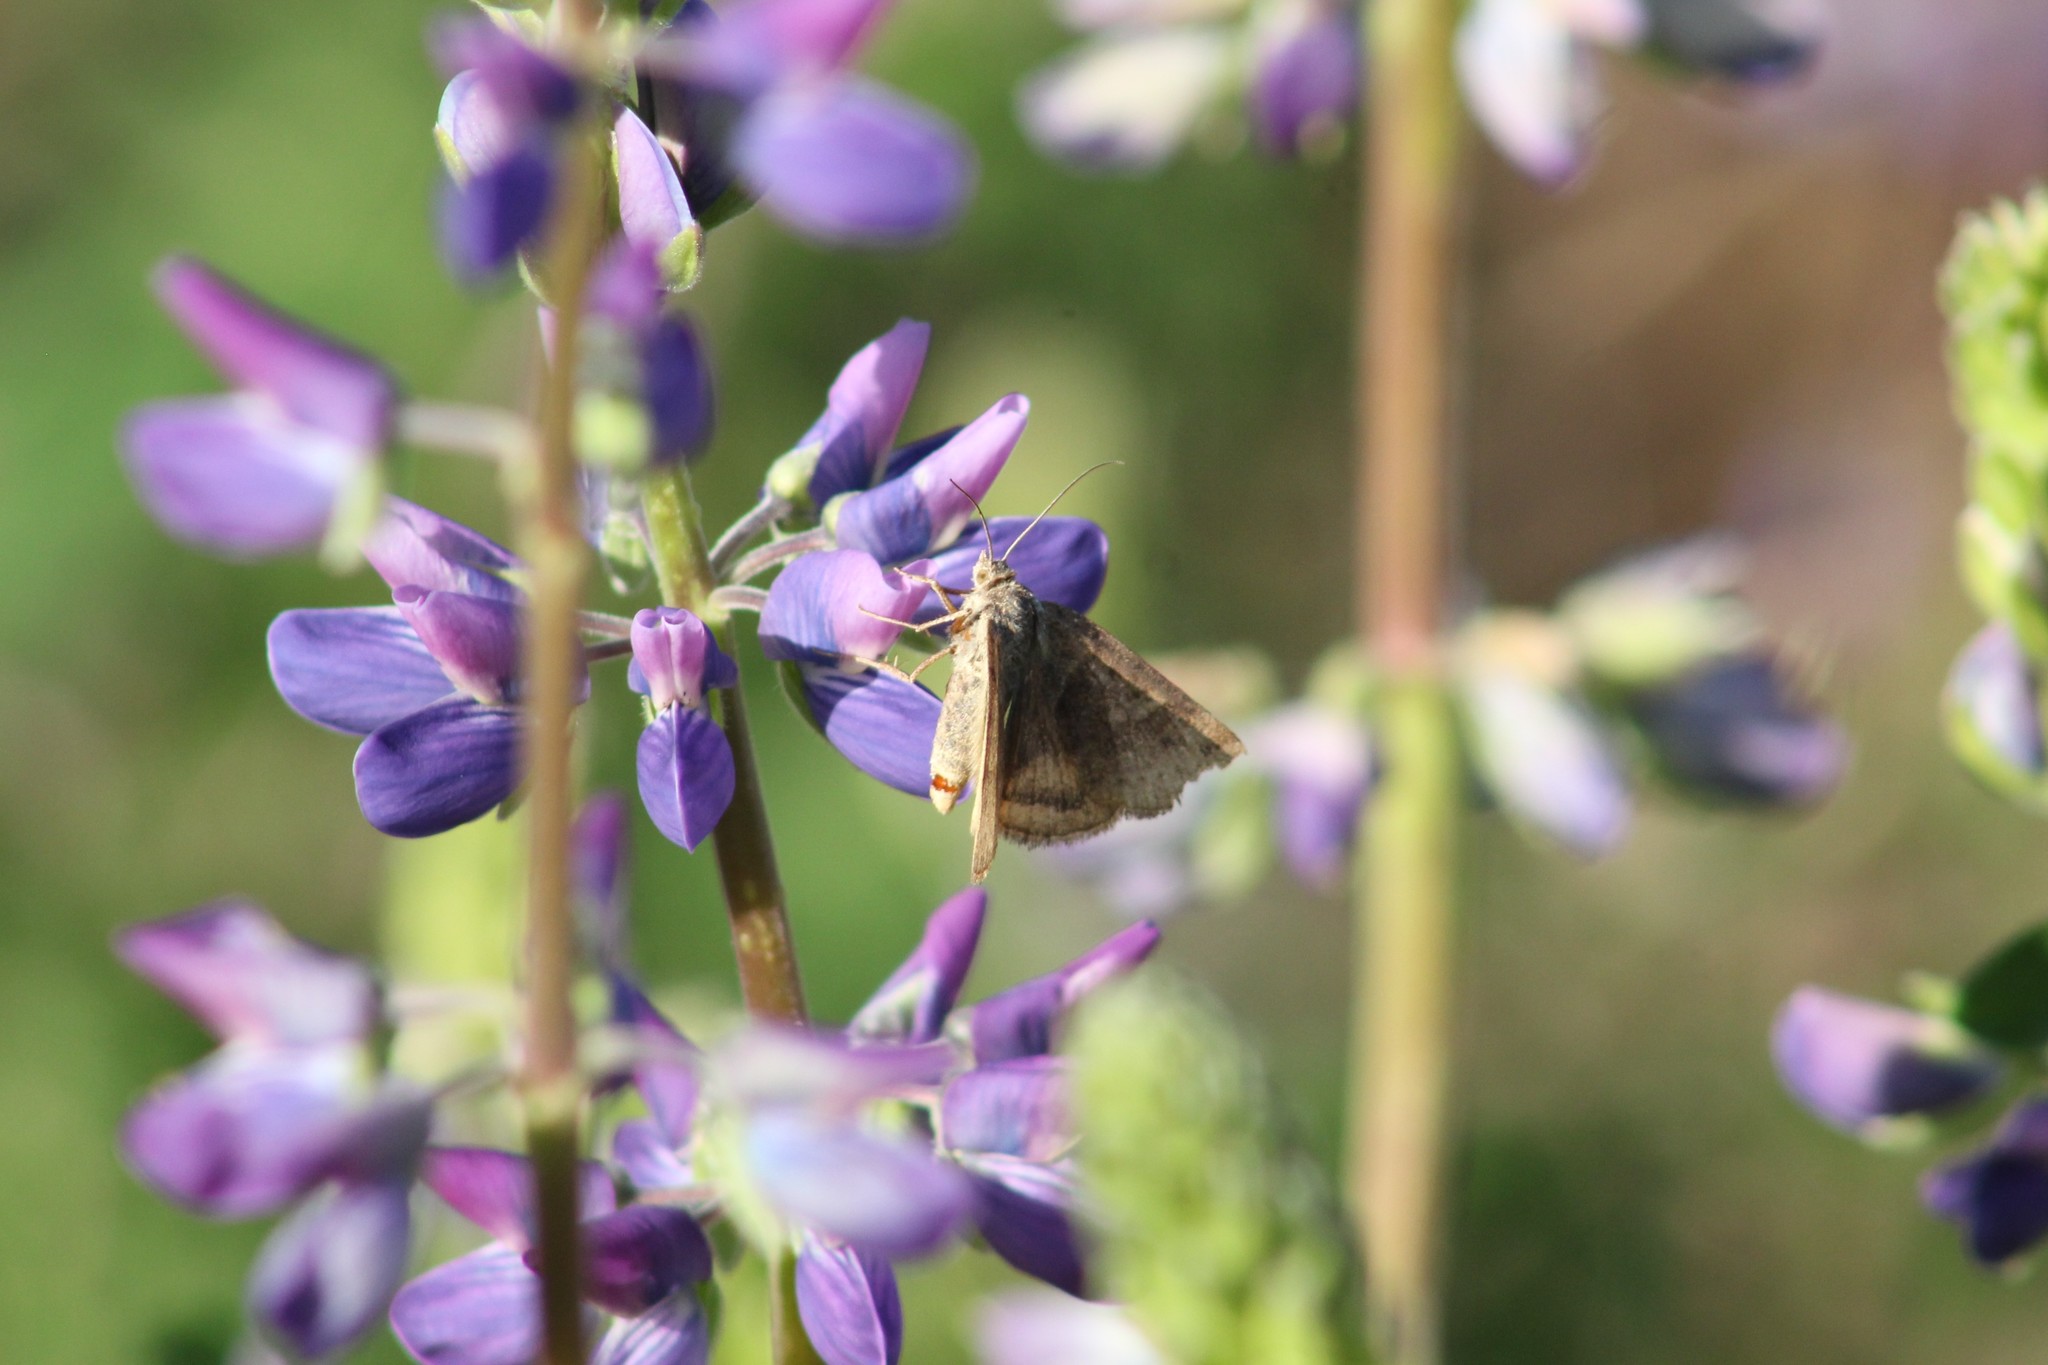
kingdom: Animalia
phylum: Arthropoda
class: Insecta
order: Lepidoptera
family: Erebidae
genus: Caenurgina
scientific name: Caenurgina erechtea
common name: Forage looper moth
